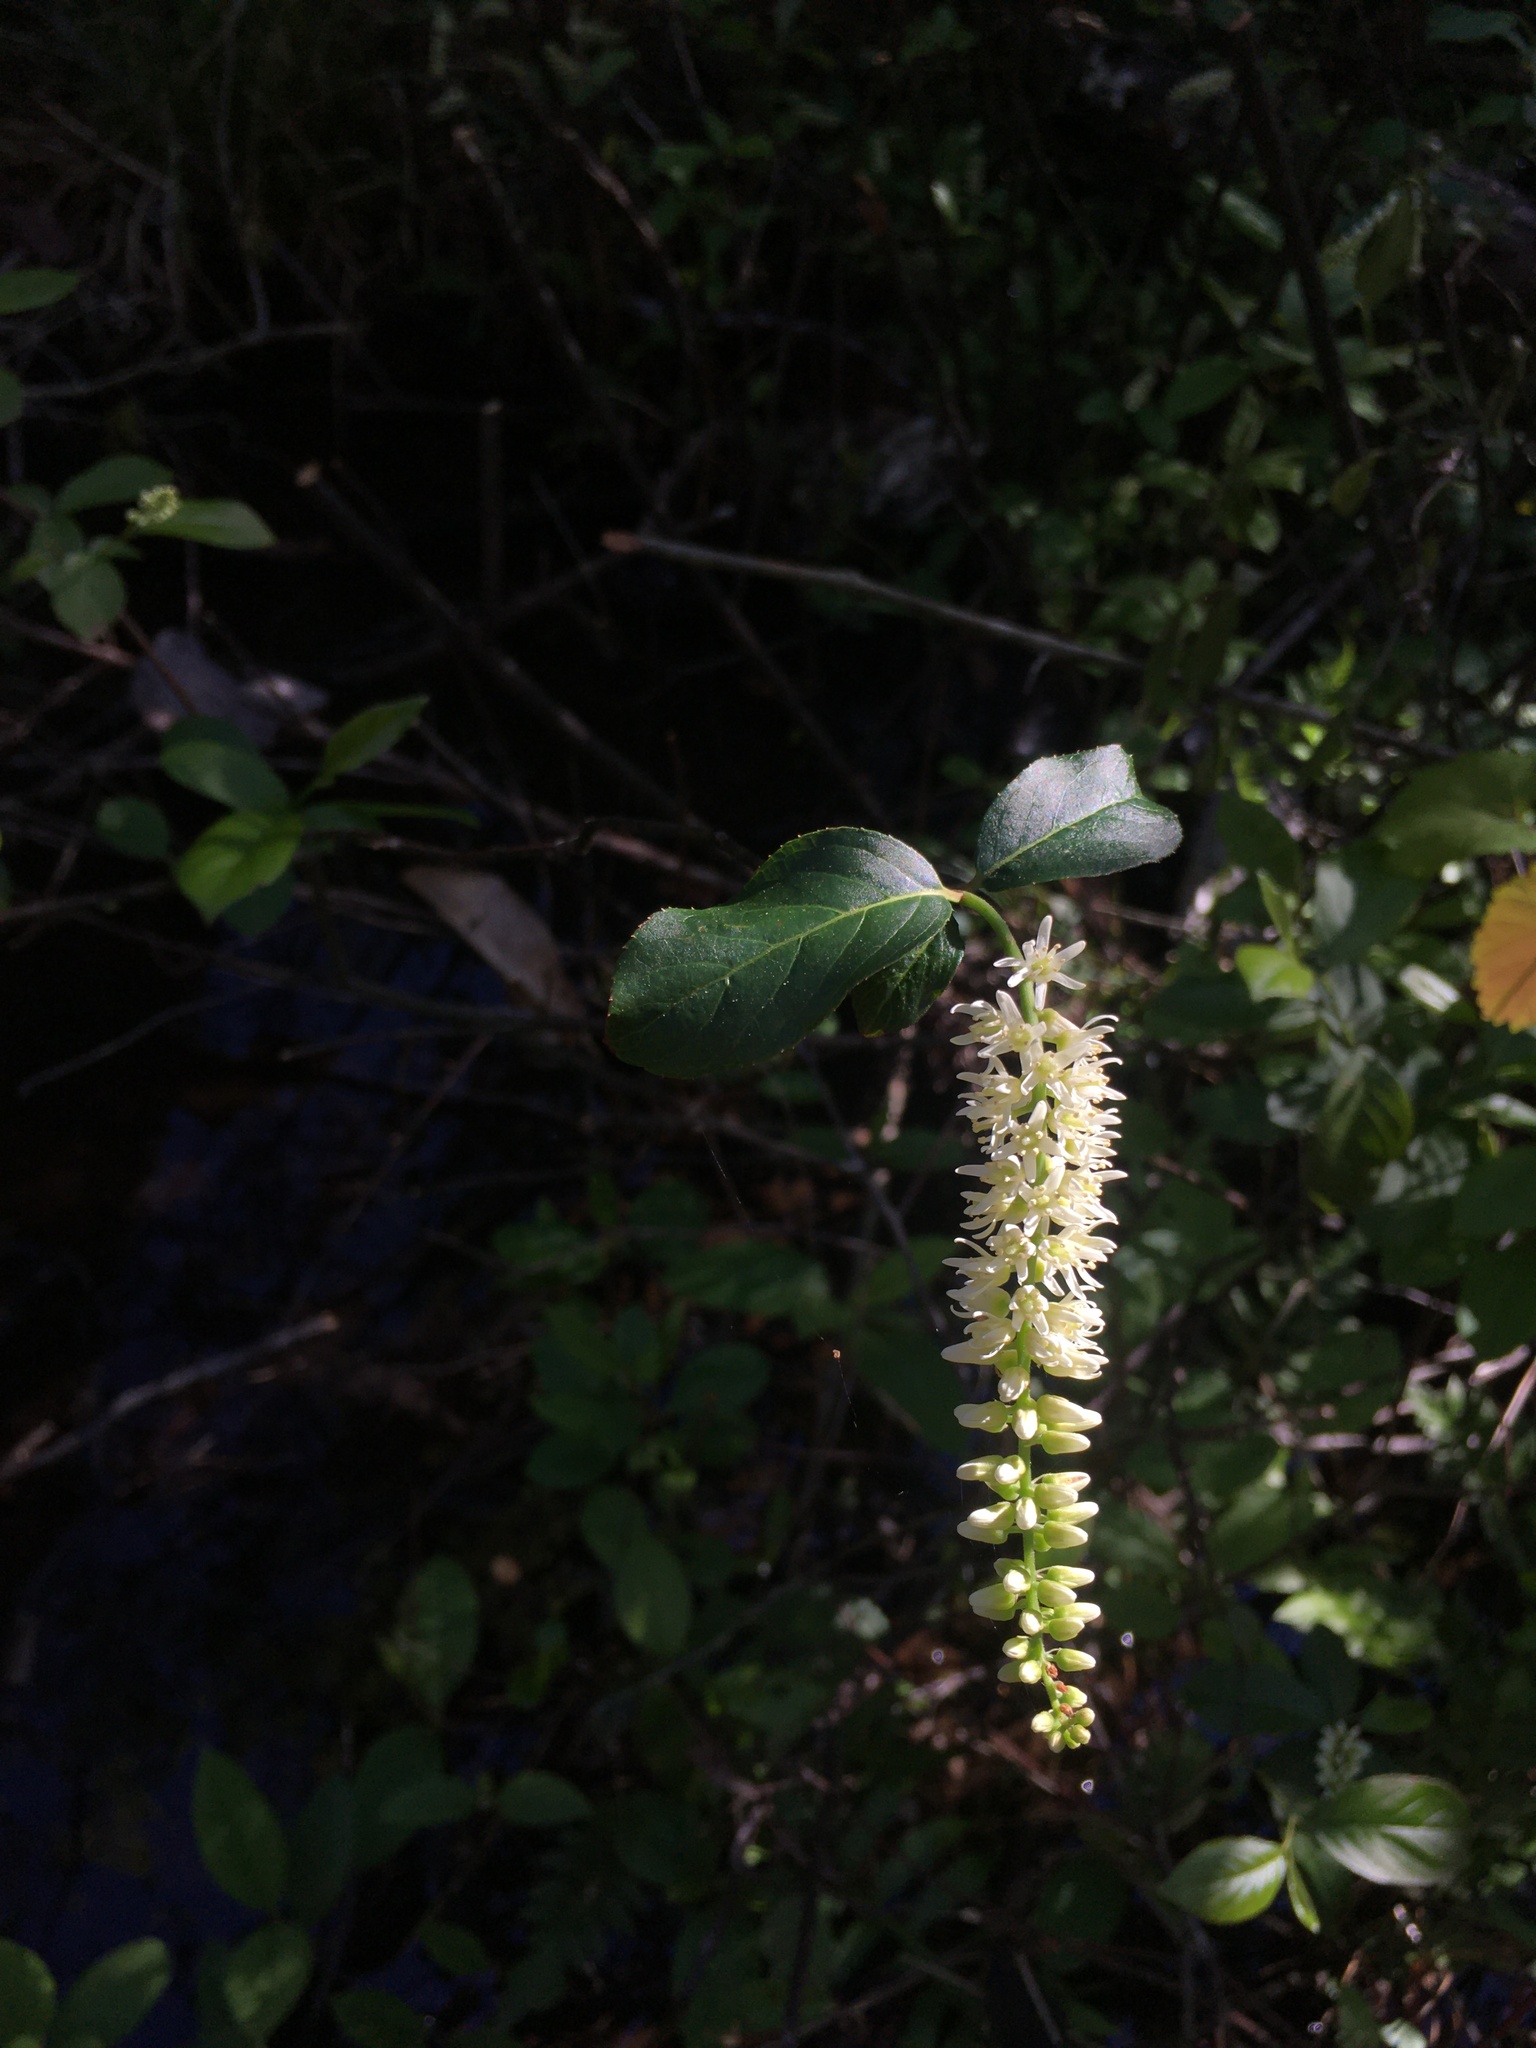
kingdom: Plantae
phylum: Tracheophyta
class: Magnoliopsida
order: Saxifragales
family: Iteaceae
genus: Itea
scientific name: Itea virginica
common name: Sweetspire
